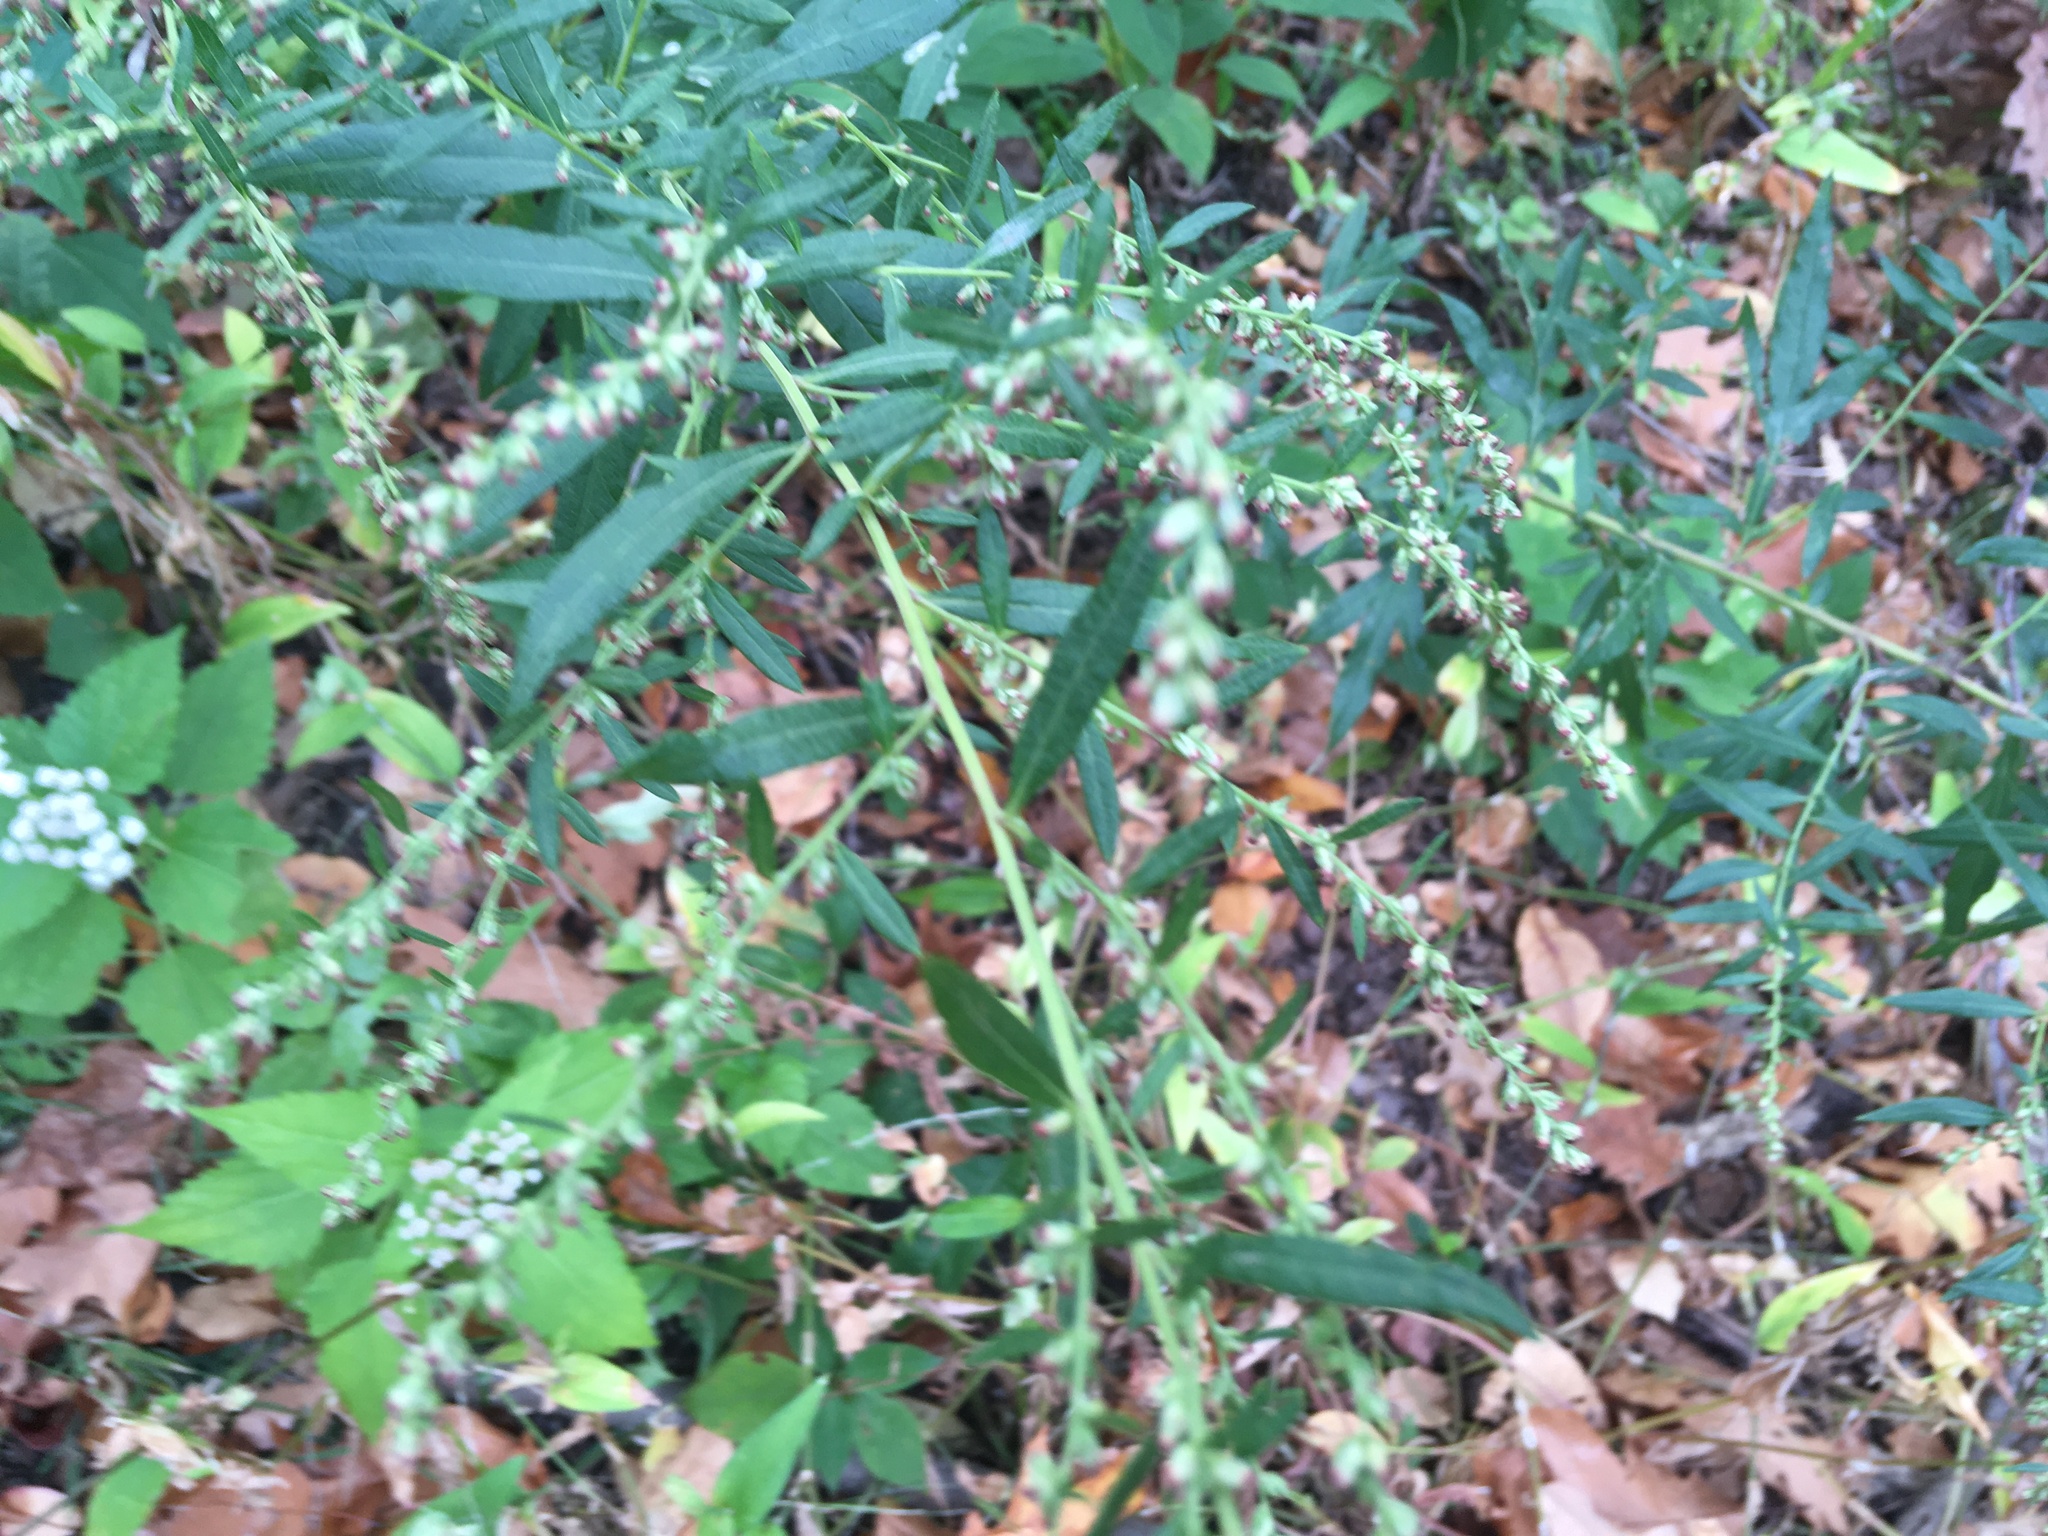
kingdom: Plantae
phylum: Tracheophyta
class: Magnoliopsida
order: Asterales
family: Asteraceae
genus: Artemisia
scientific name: Artemisia vulgaris
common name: Mugwort
